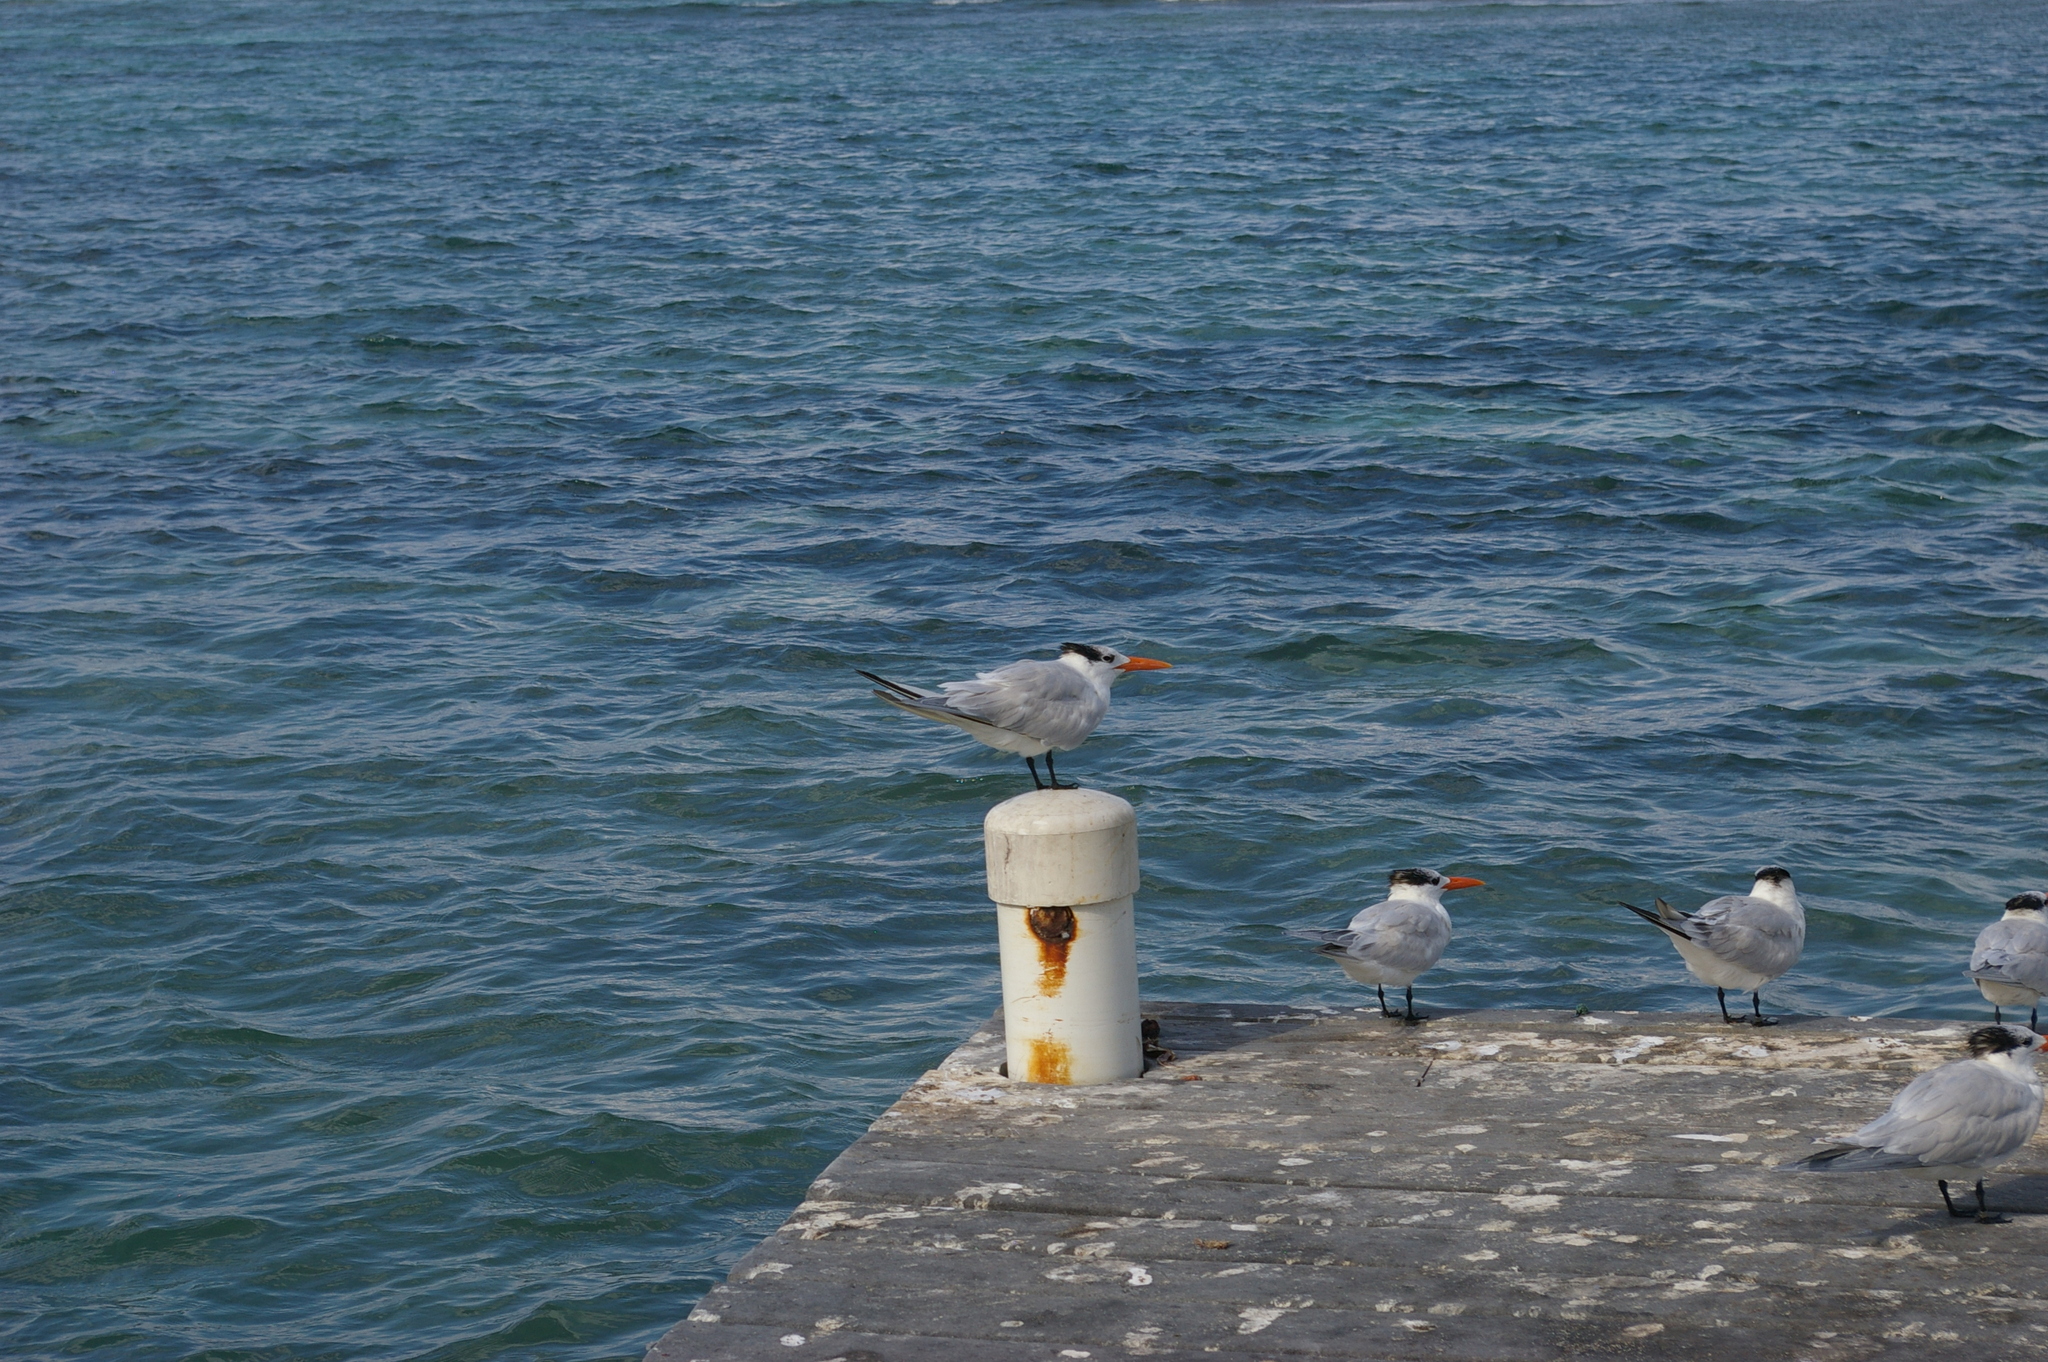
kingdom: Animalia
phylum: Chordata
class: Aves
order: Charadriiformes
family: Laridae
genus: Thalasseus
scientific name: Thalasseus maximus
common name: Royal tern
